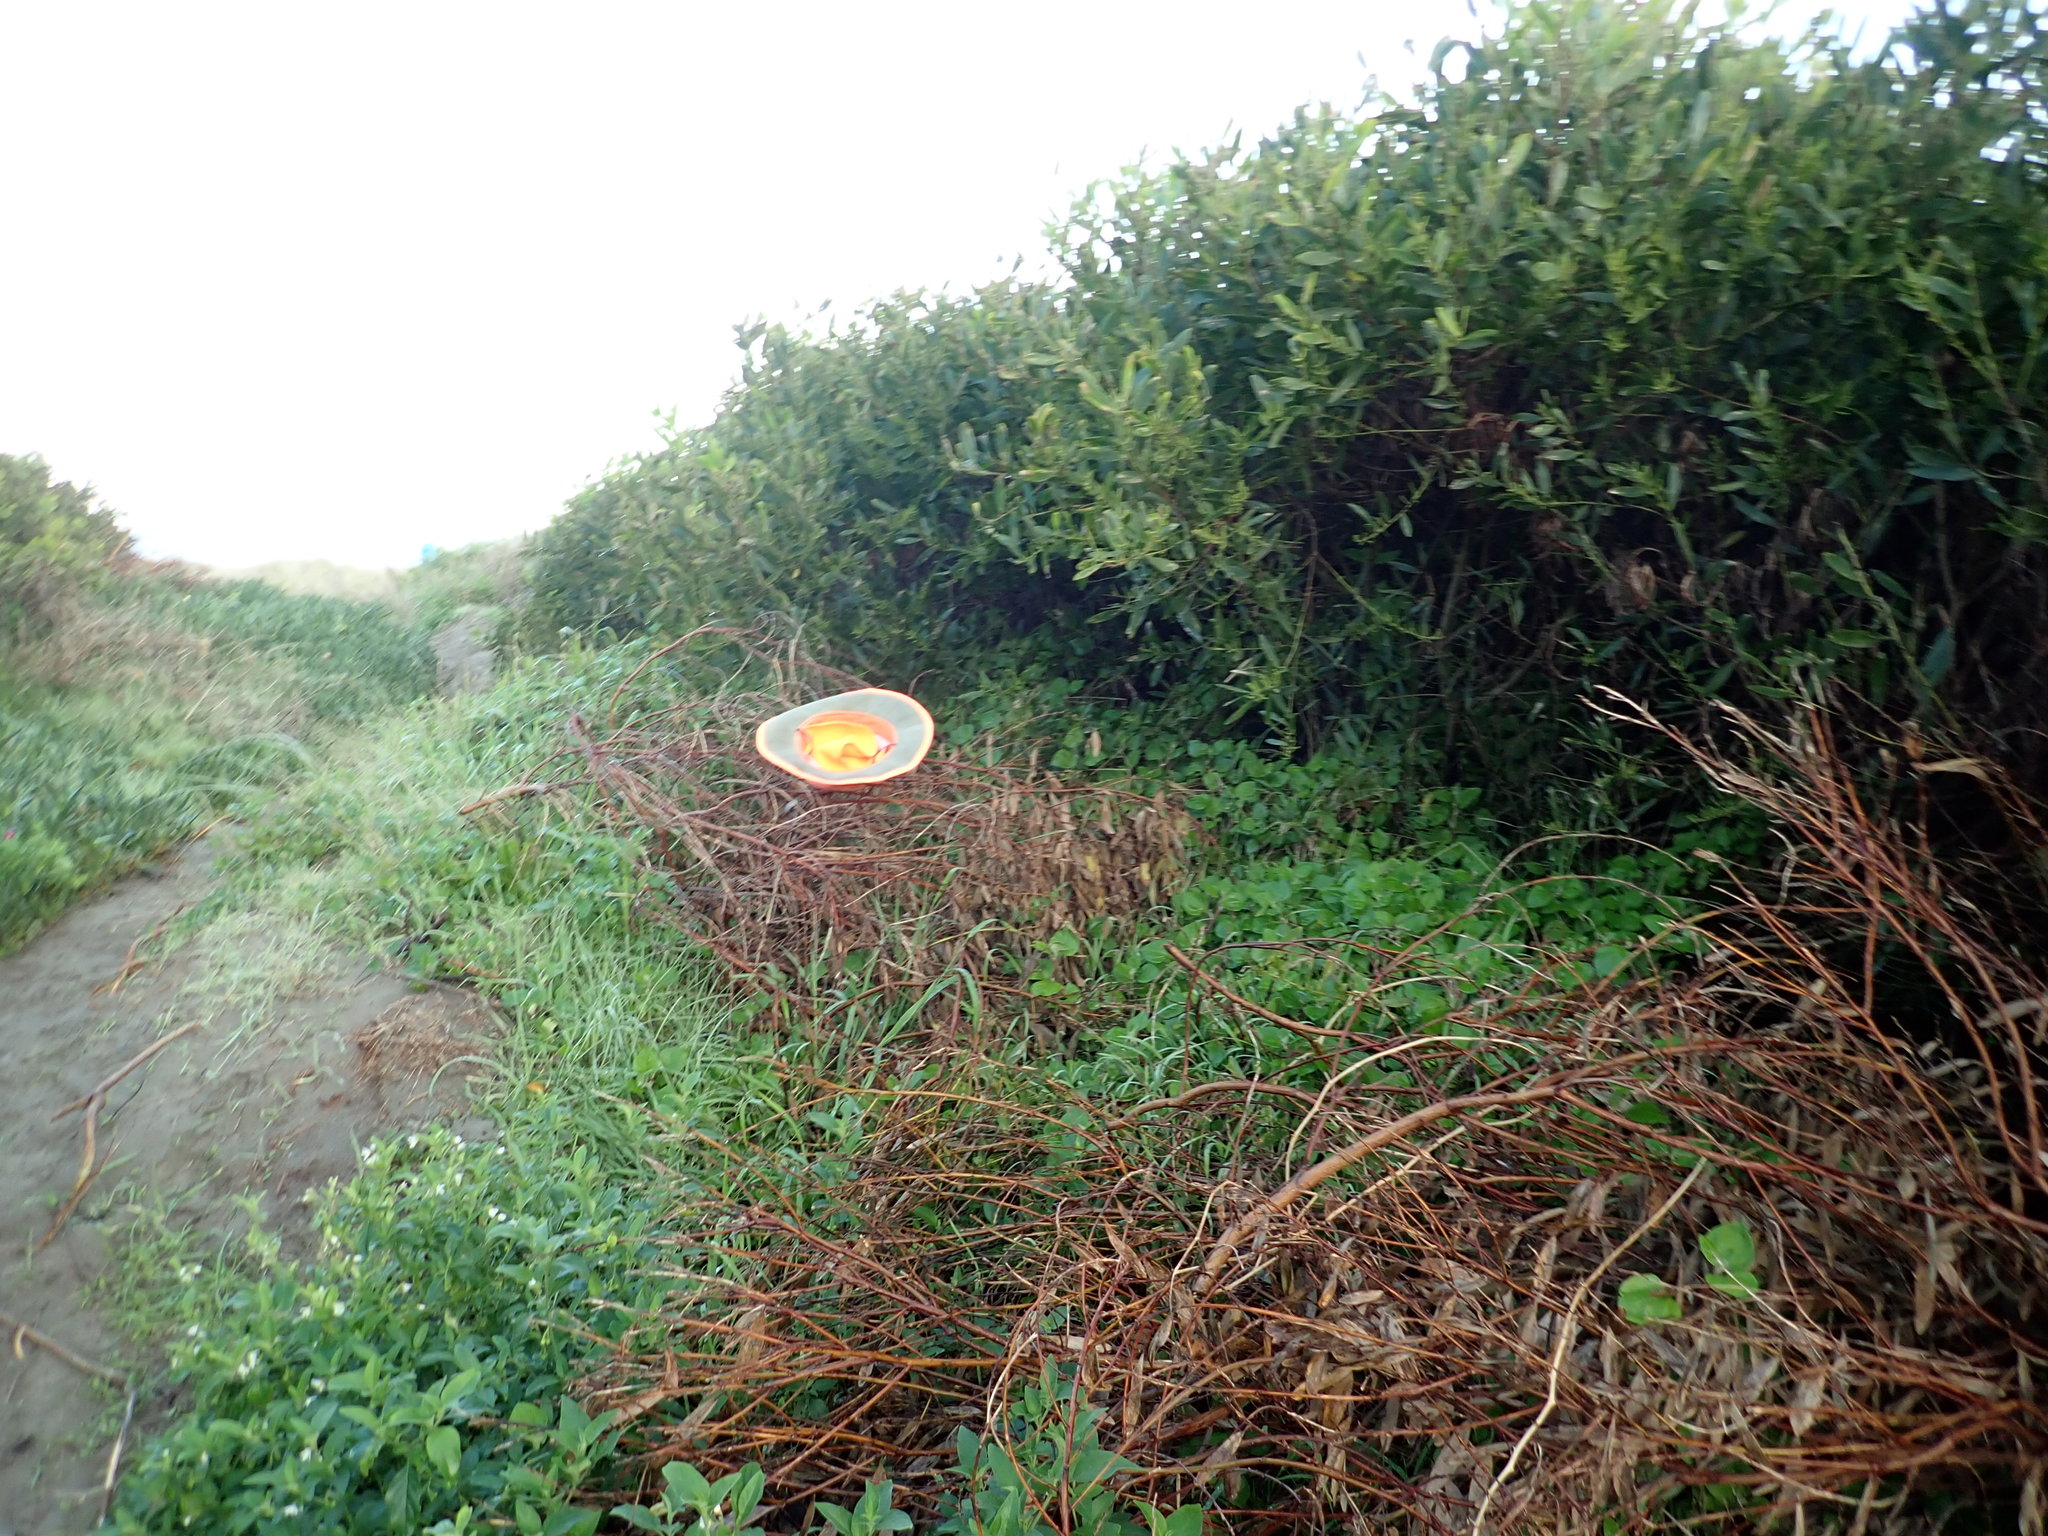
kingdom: Plantae
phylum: Tracheophyta
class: Magnoliopsida
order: Caryophyllales
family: Aizoaceae
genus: Tetragonia
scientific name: Tetragonia implexicoma
